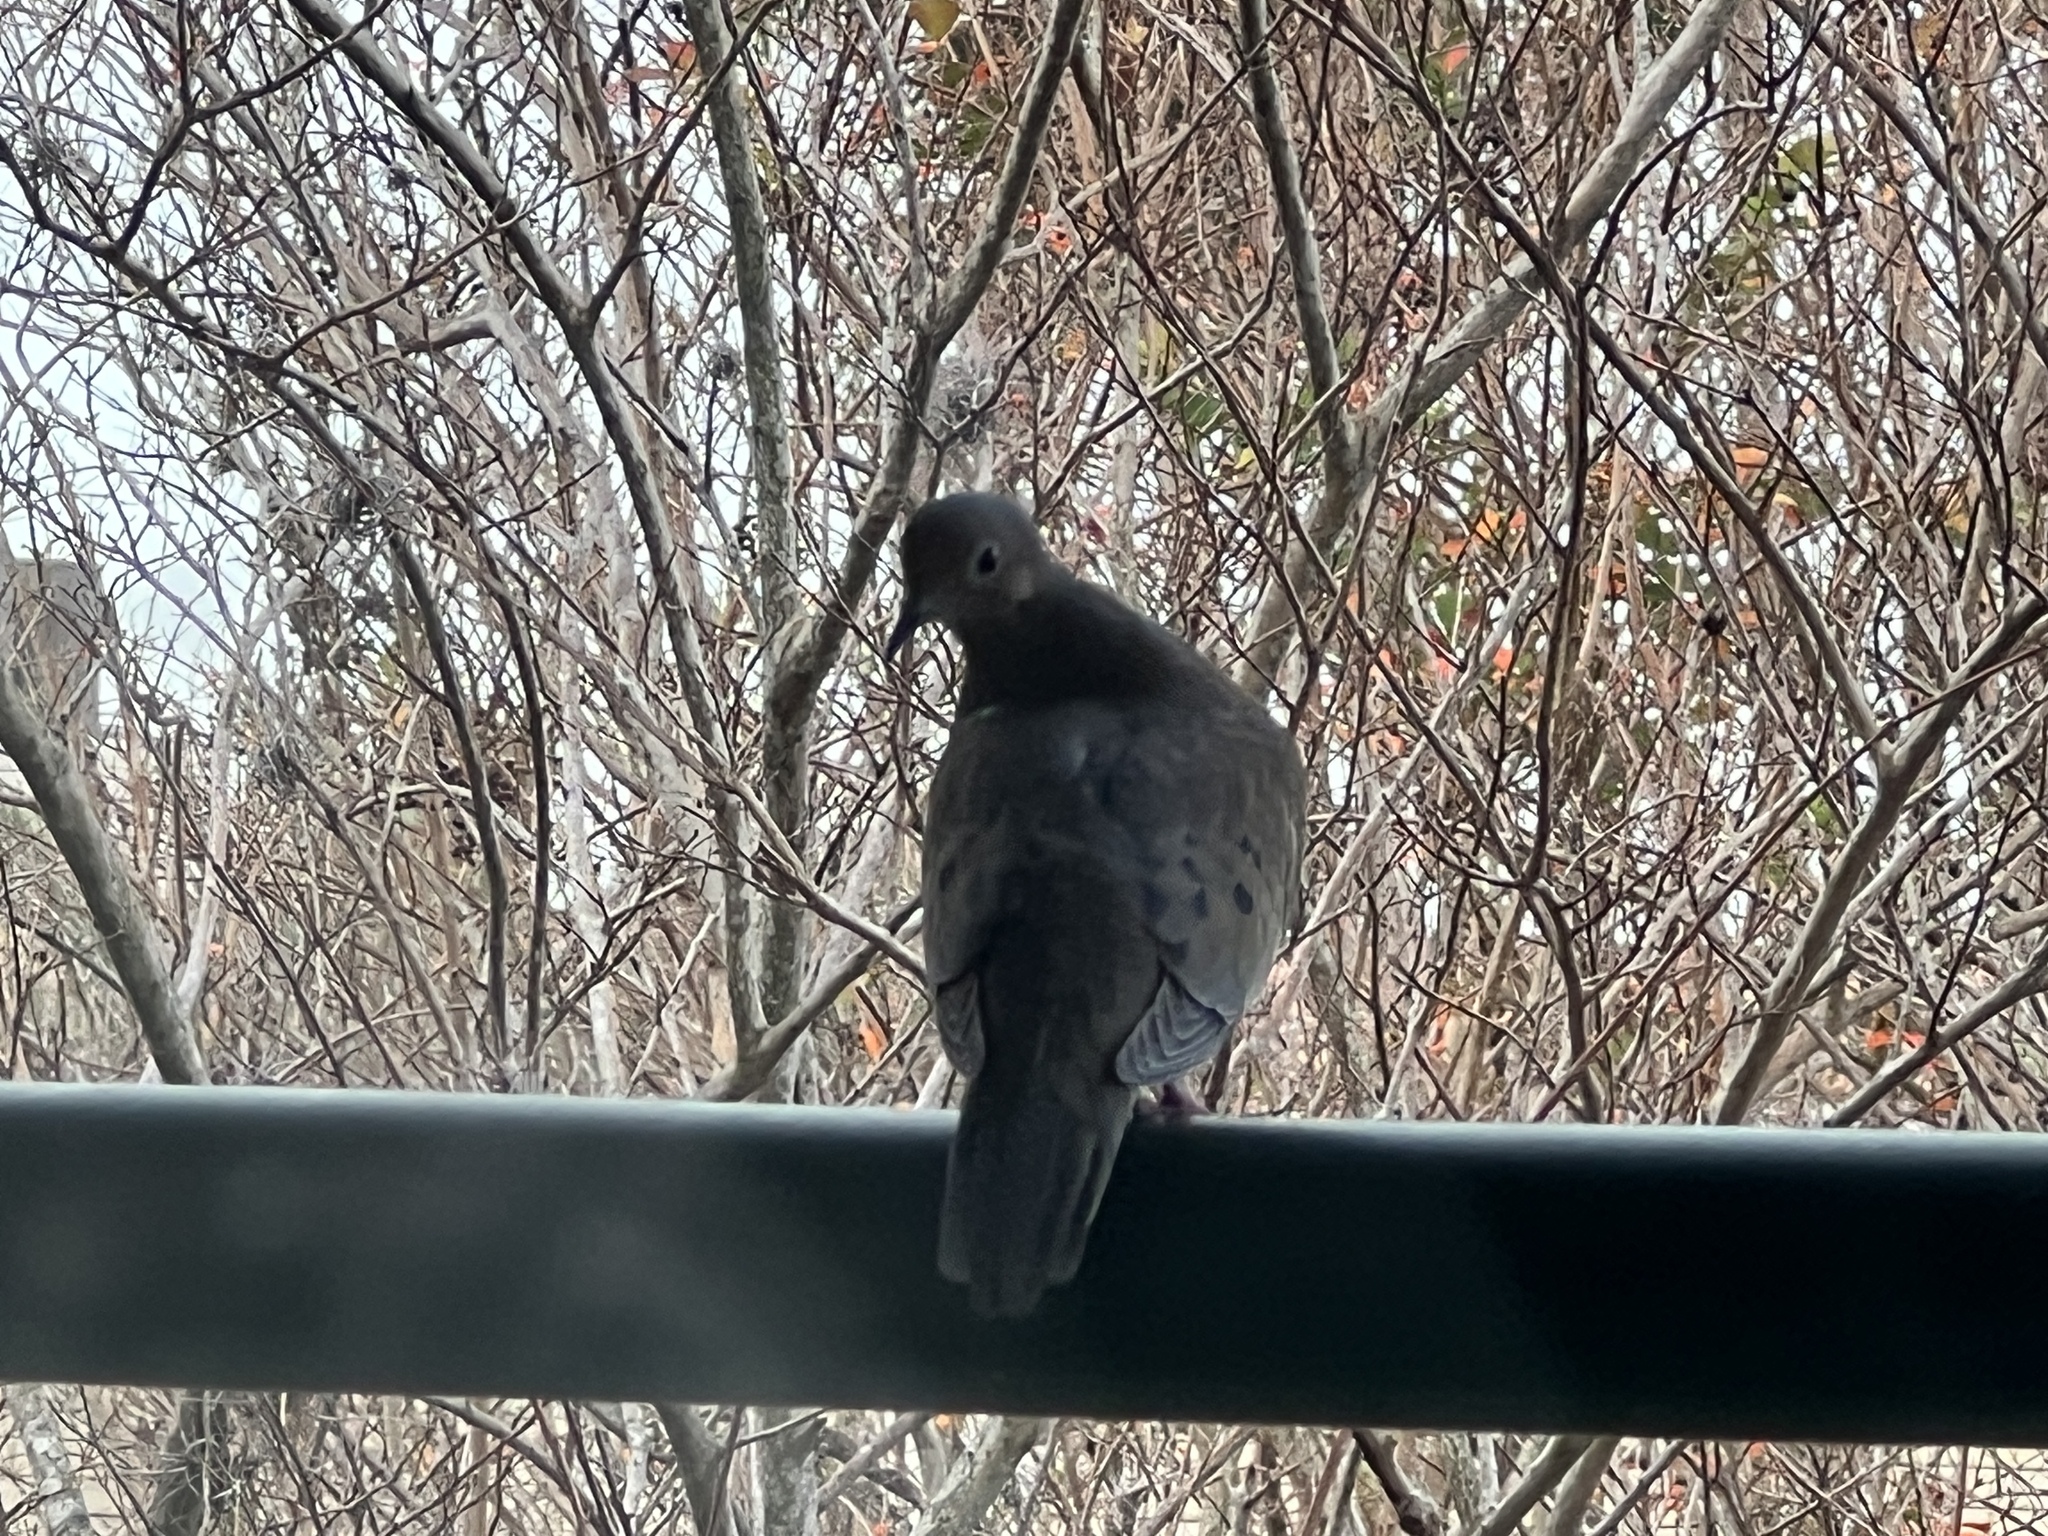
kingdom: Animalia
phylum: Chordata
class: Aves
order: Columbiformes
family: Columbidae
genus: Zenaida
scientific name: Zenaida macroura
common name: Mourning dove
